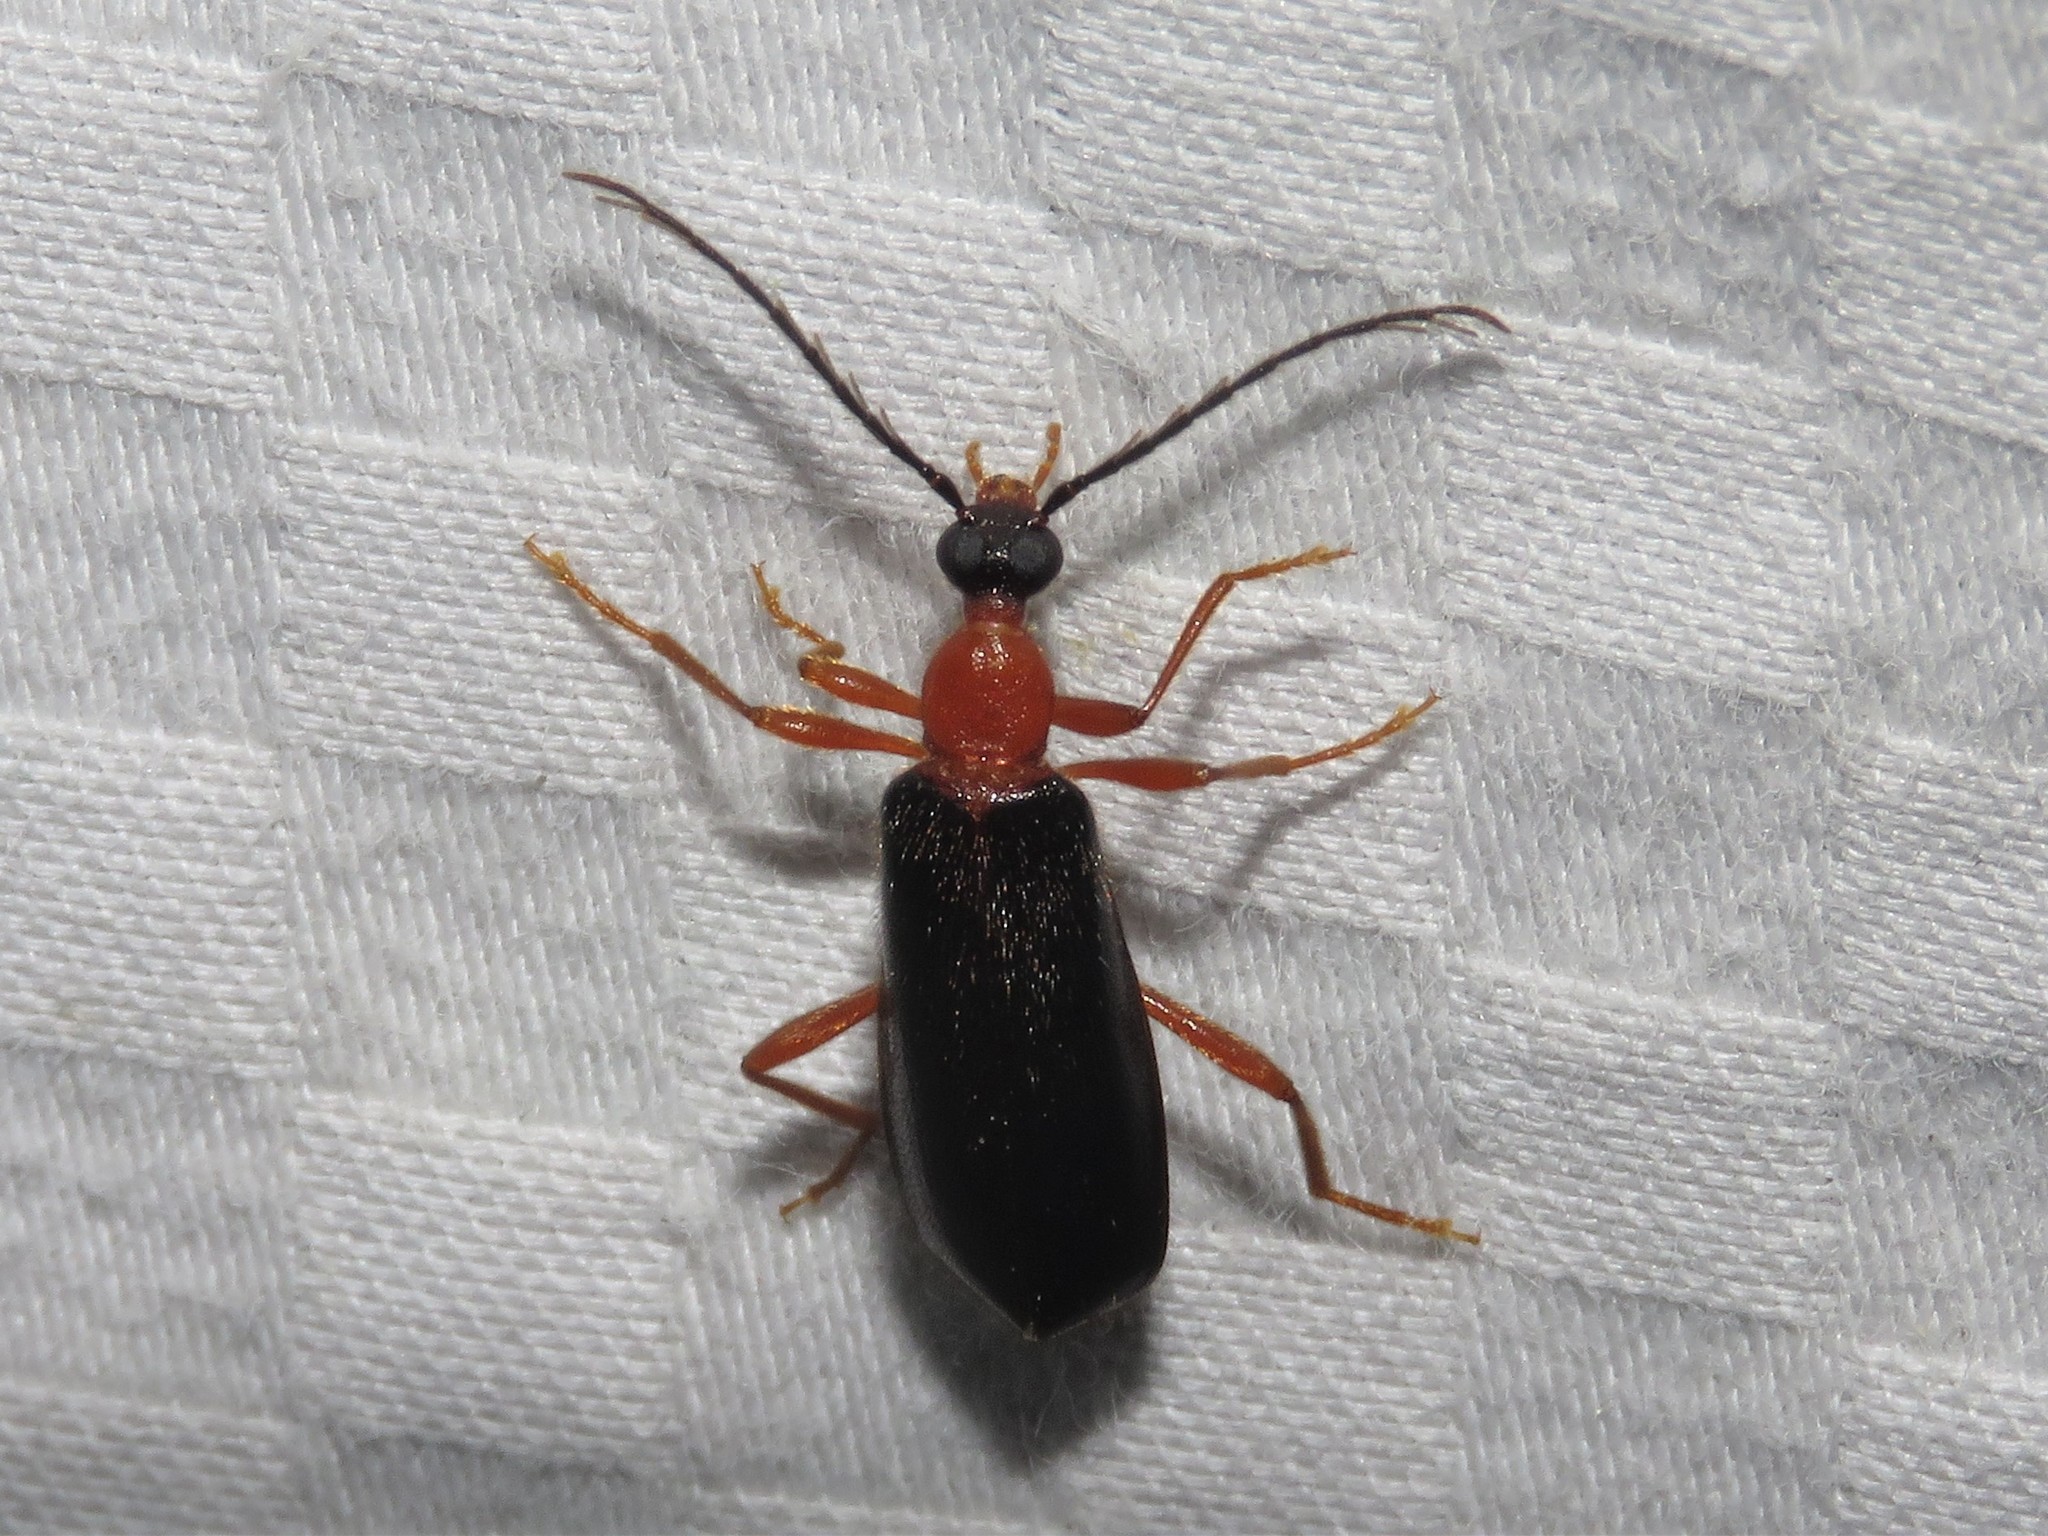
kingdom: Animalia
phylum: Arthropoda
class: Insecta
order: Coleoptera
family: Pyrochroidae
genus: Dendroides
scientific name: Dendroides canadensis
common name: Canada fire-colored beetle
